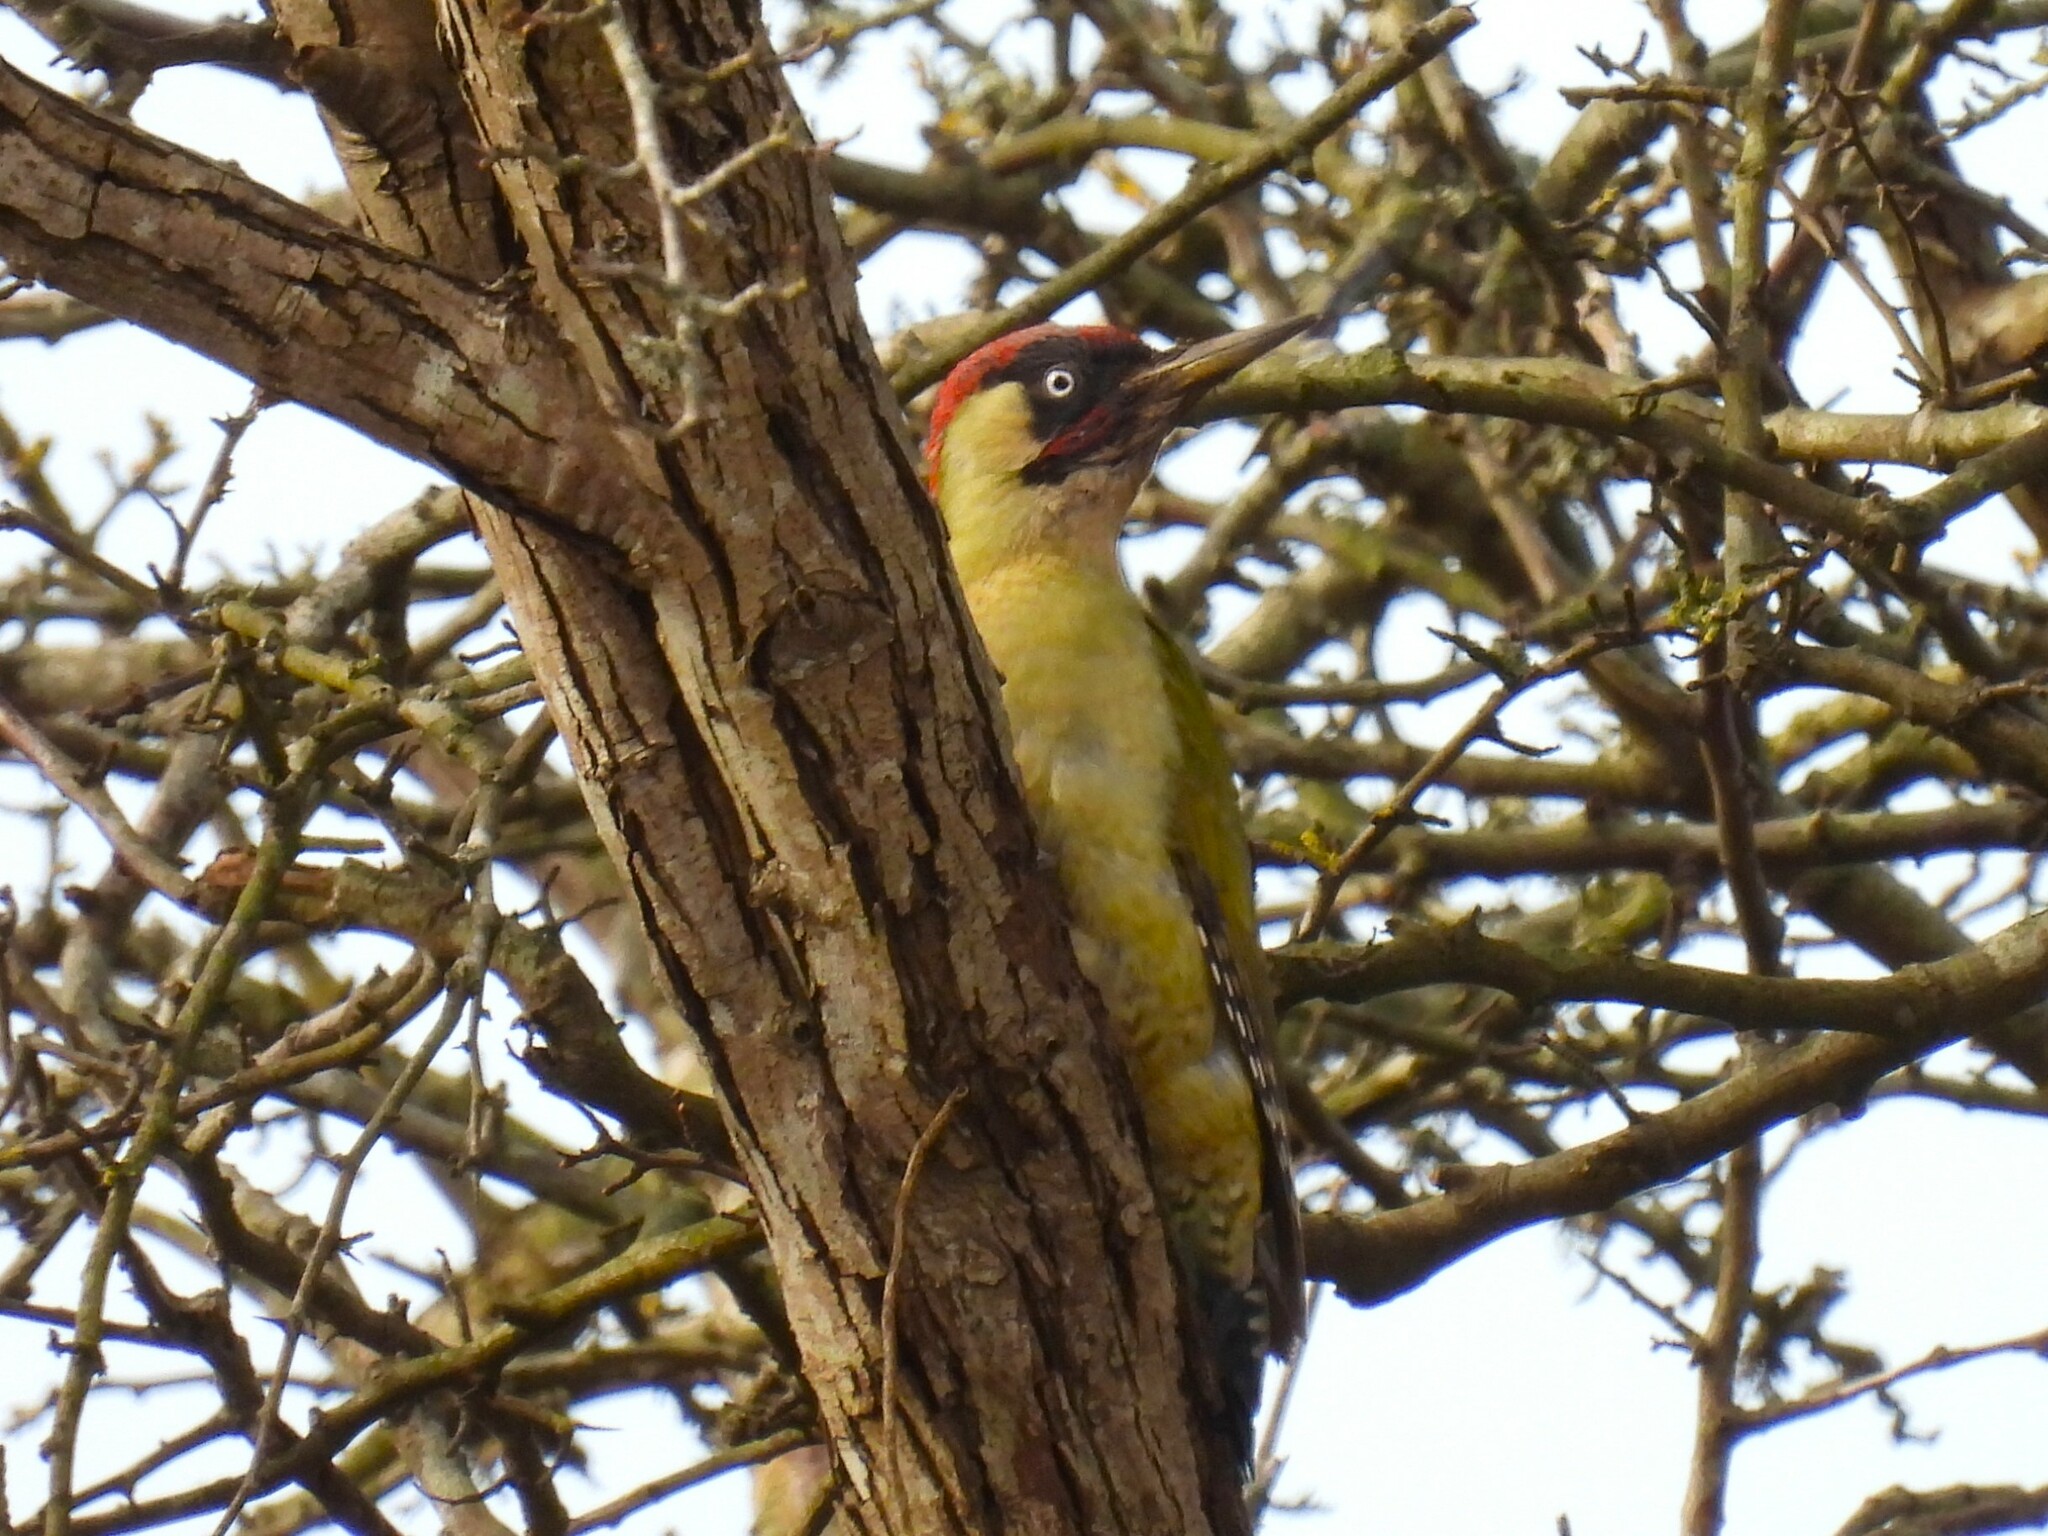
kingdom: Animalia
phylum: Chordata
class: Aves
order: Piciformes
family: Picidae
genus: Picus
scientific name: Picus viridis
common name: European green woodpecker
